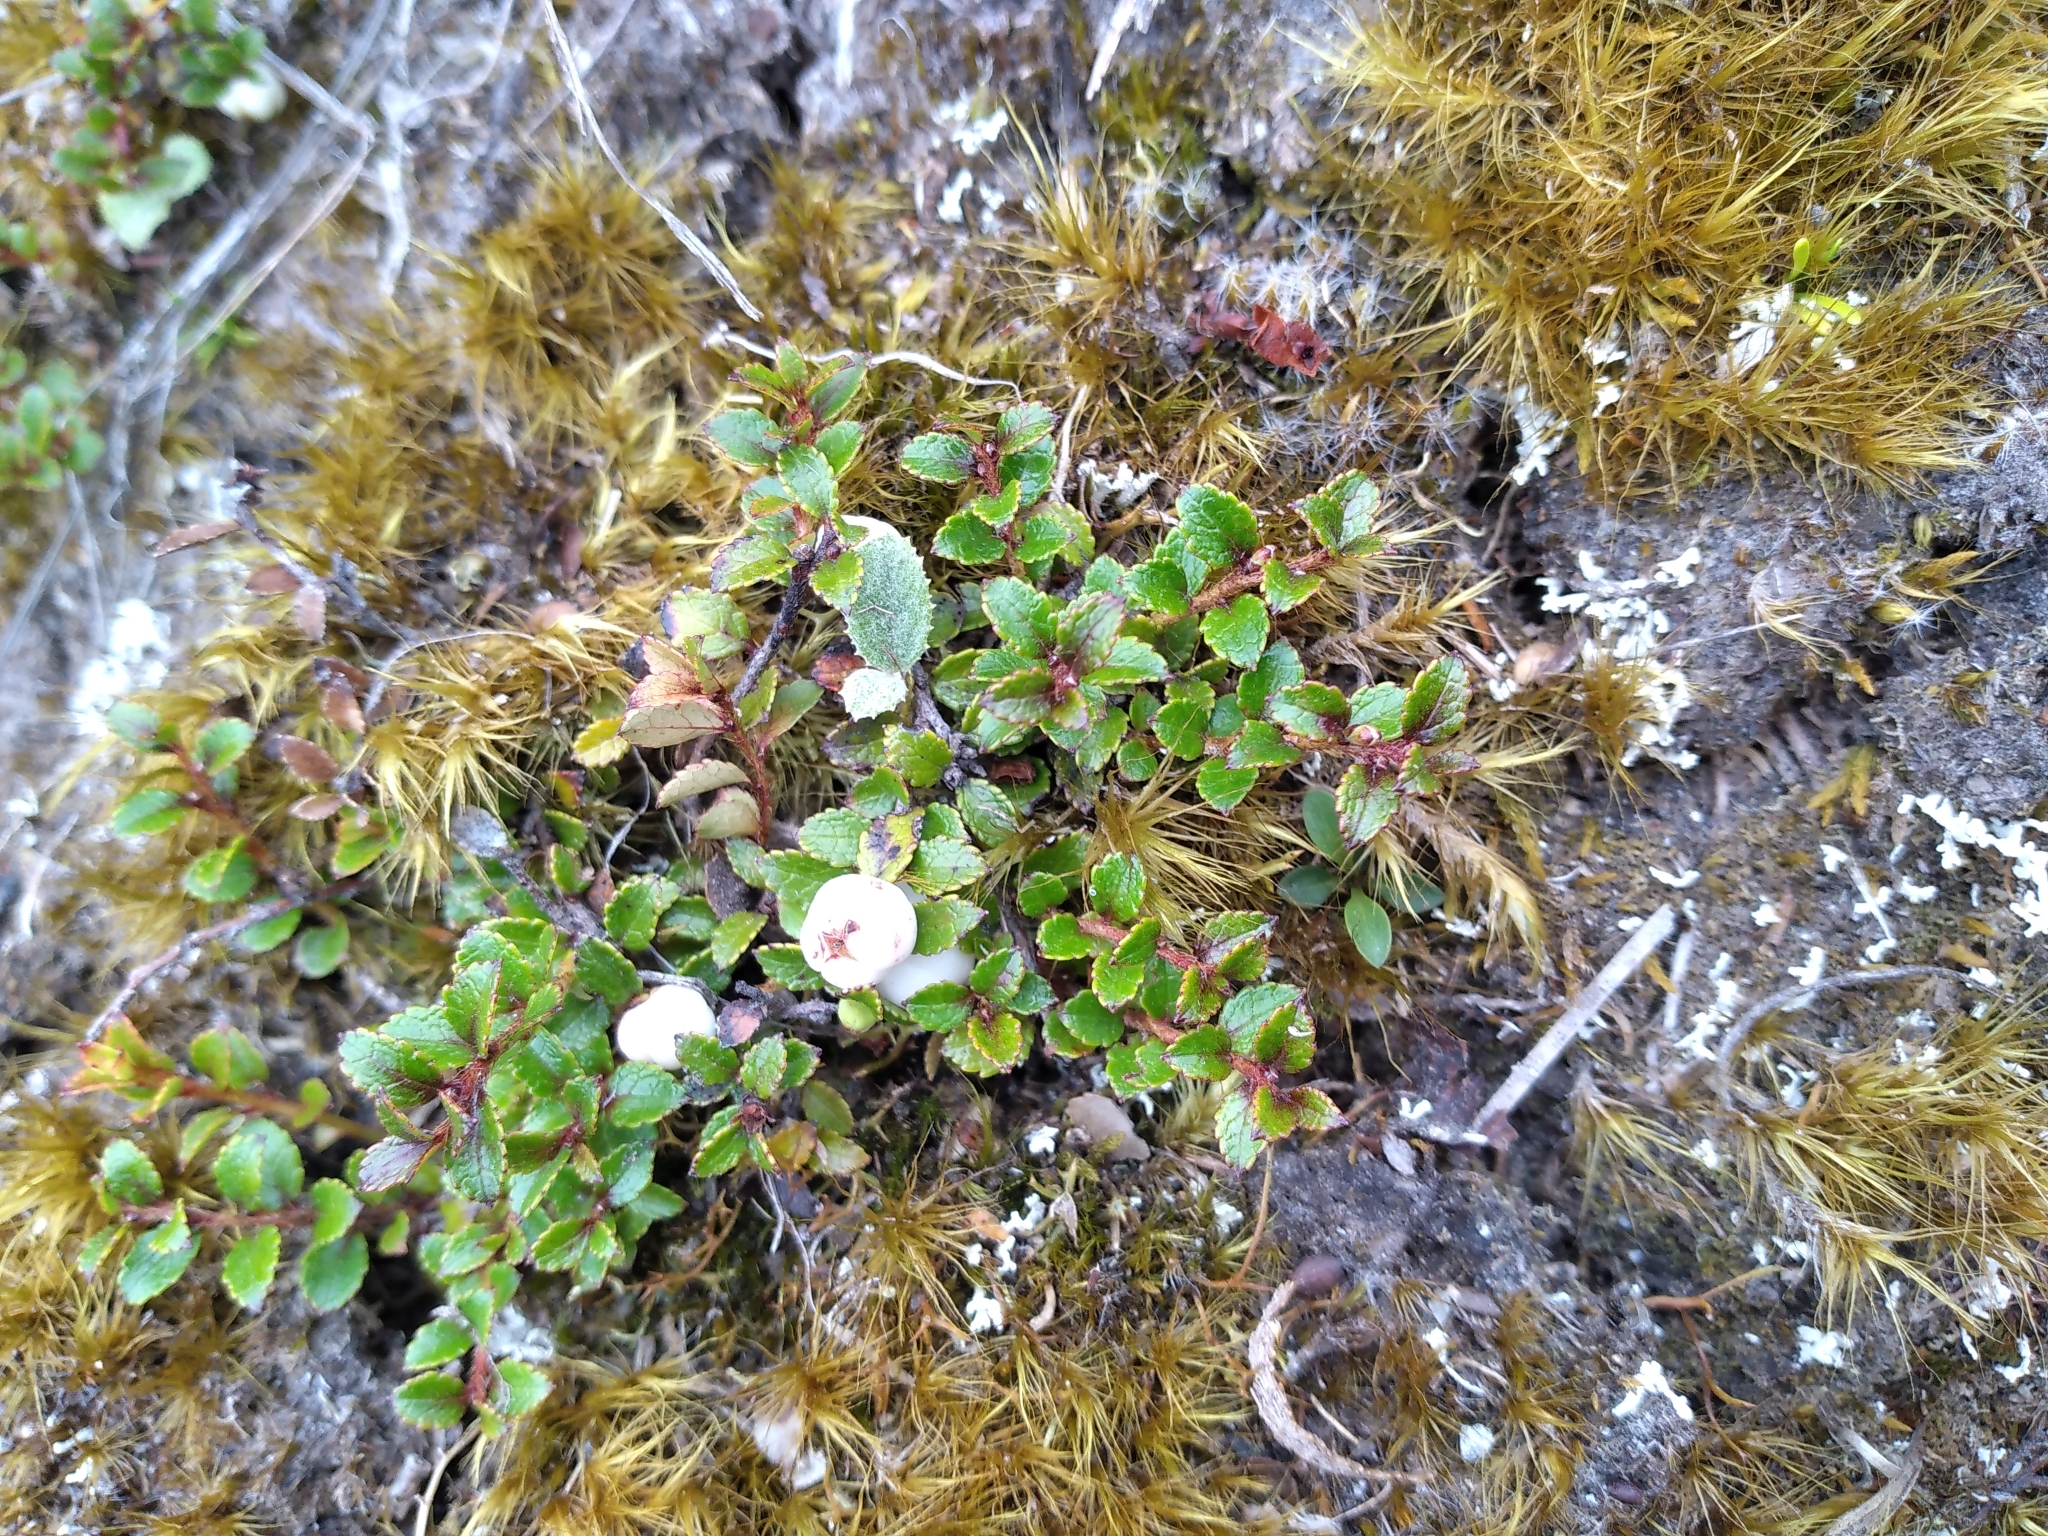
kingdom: Plantae
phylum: Tracheophyta
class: Magnoliopsida
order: Ericales
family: Ericaceae
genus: Gaultheria
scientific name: Gaultheria depressa
